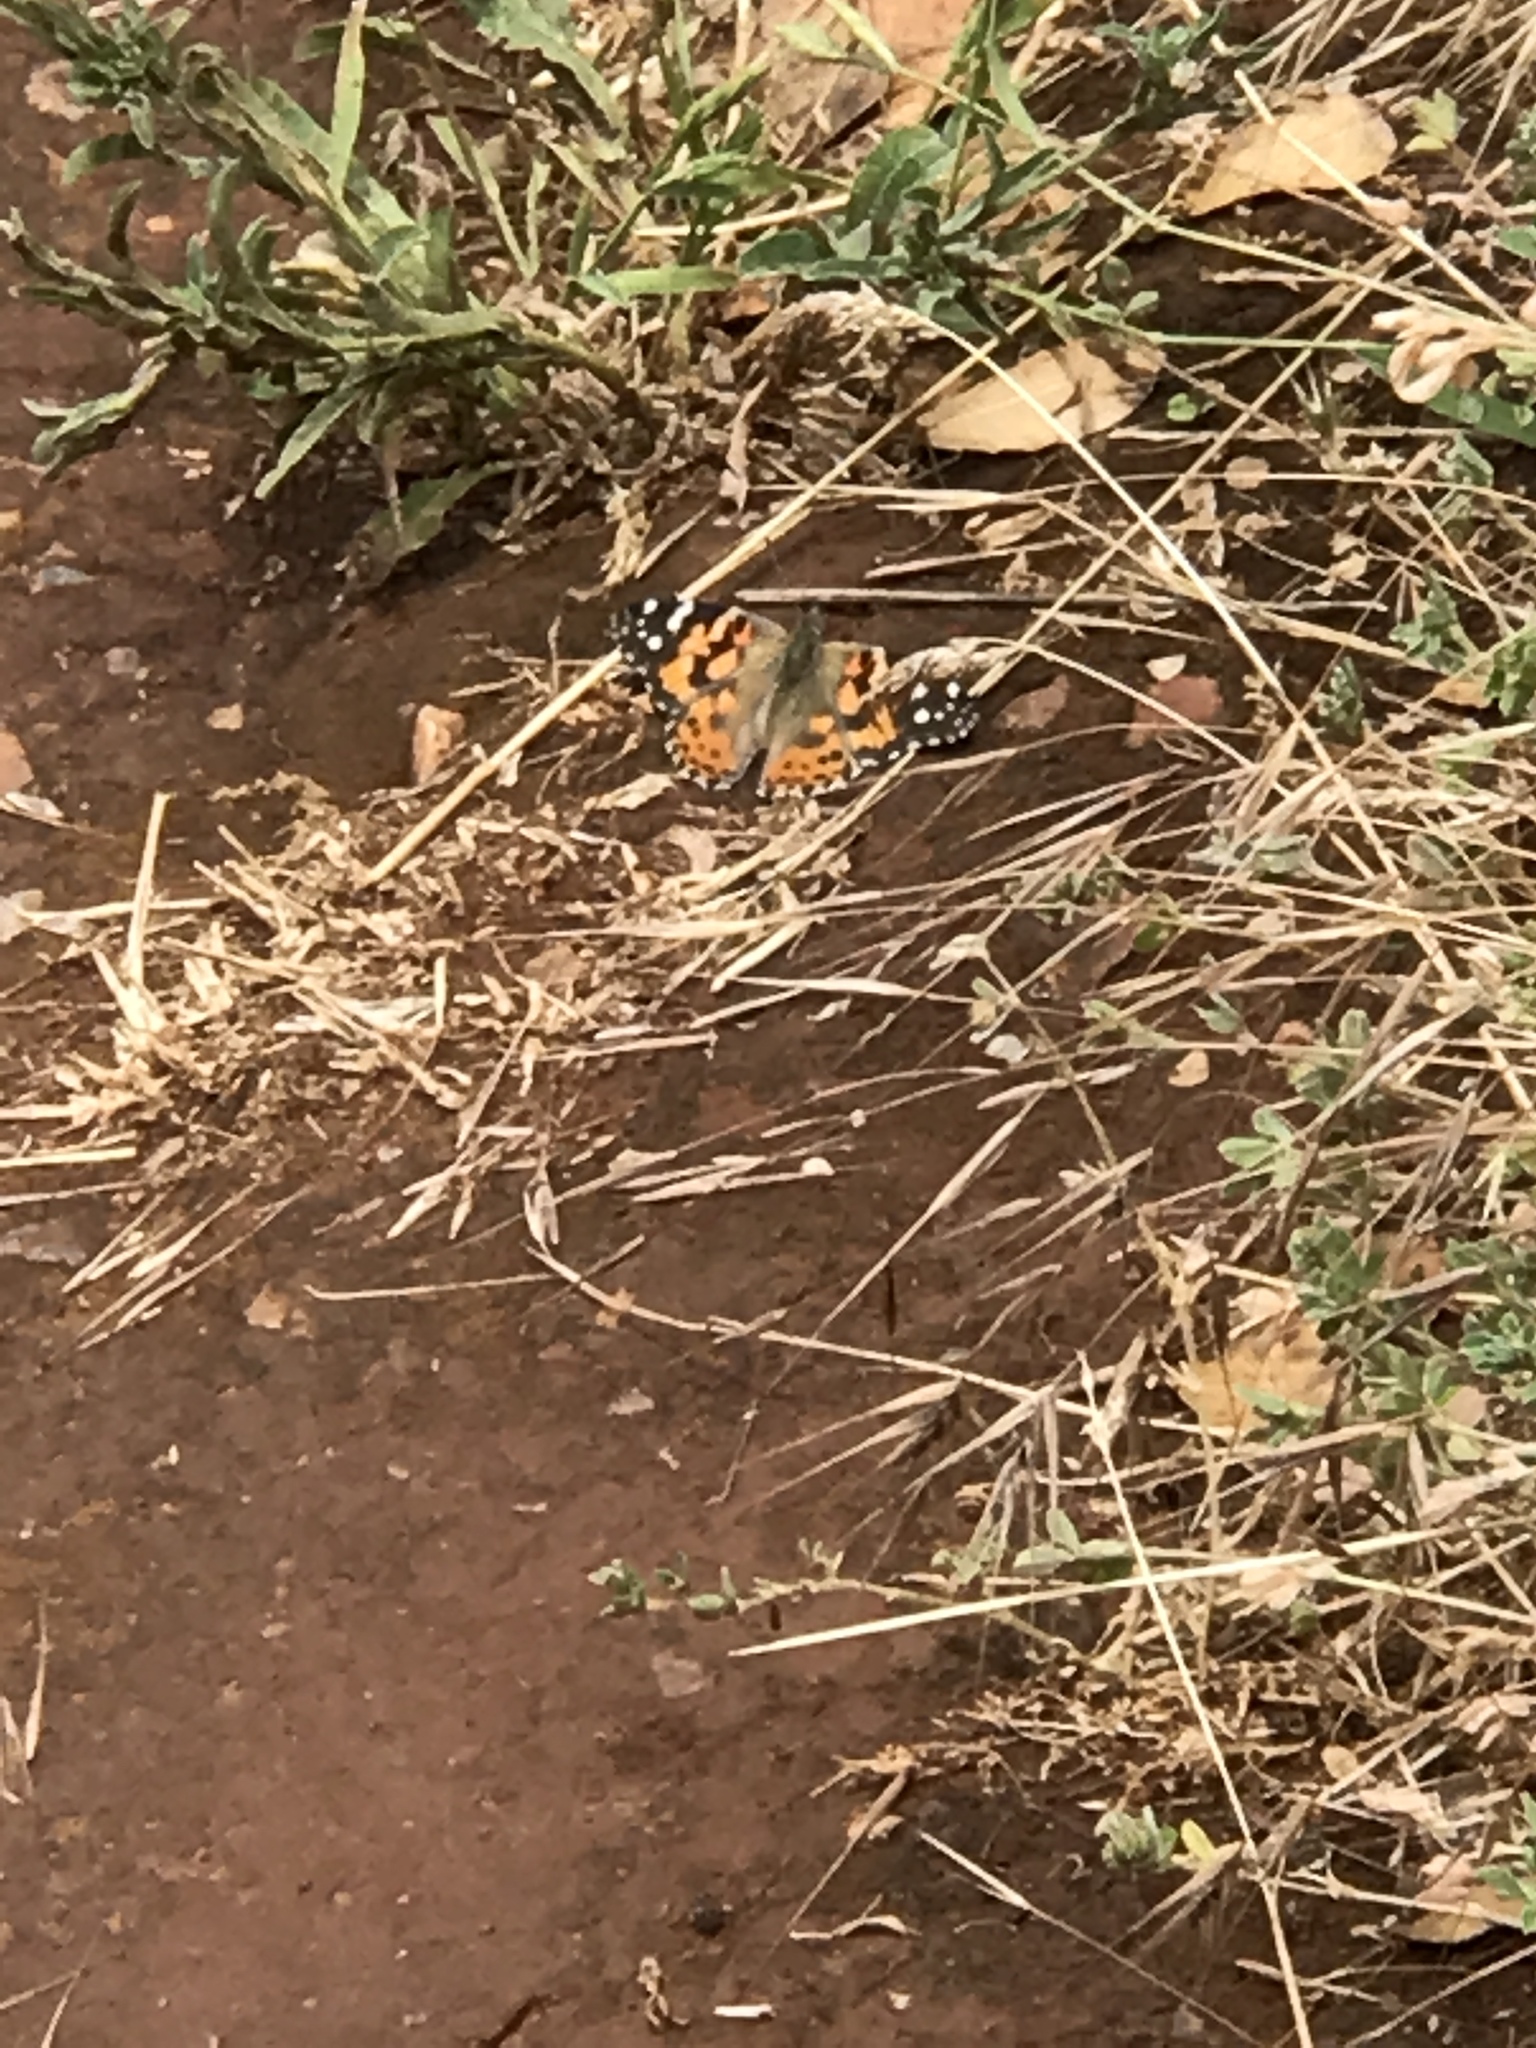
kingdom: Animalia
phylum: Arthropoda
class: Insecta
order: Lepidoptera
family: Nymphalidae
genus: Vanessa
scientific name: Vanessa cardui
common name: Painted lady
